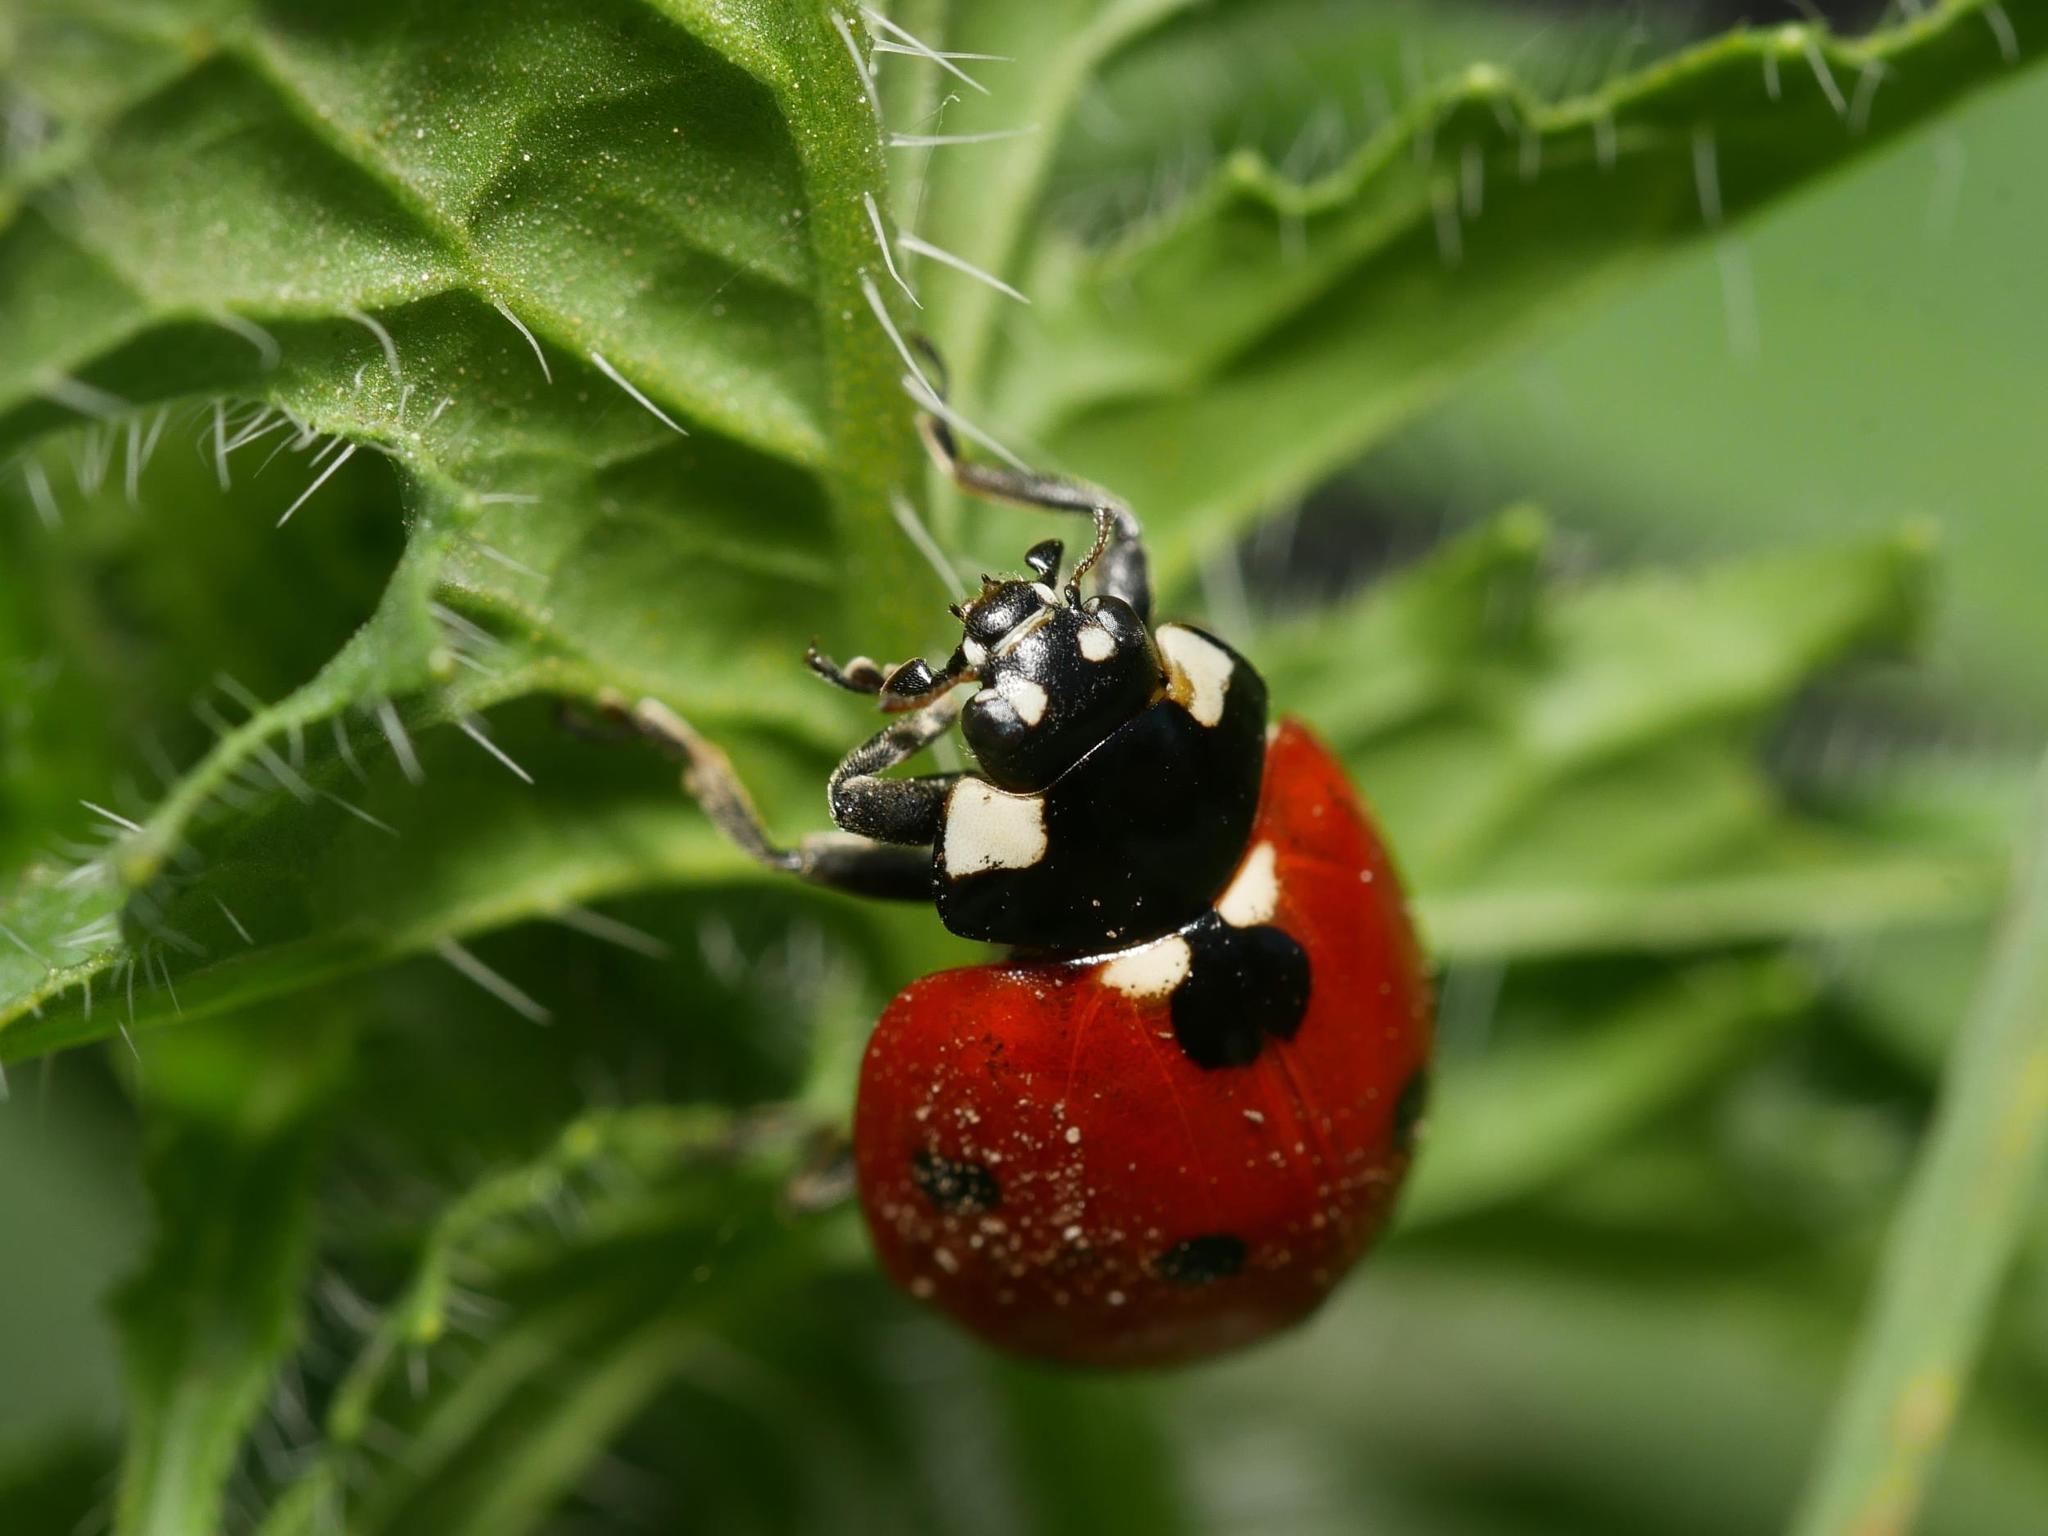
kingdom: Animalia
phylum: Arthropoda
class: Insecta
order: Coleoptera
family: Coccinellidae
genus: Coccinella
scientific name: Coccinella septempunctata
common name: Sevenspotted lady beetle
